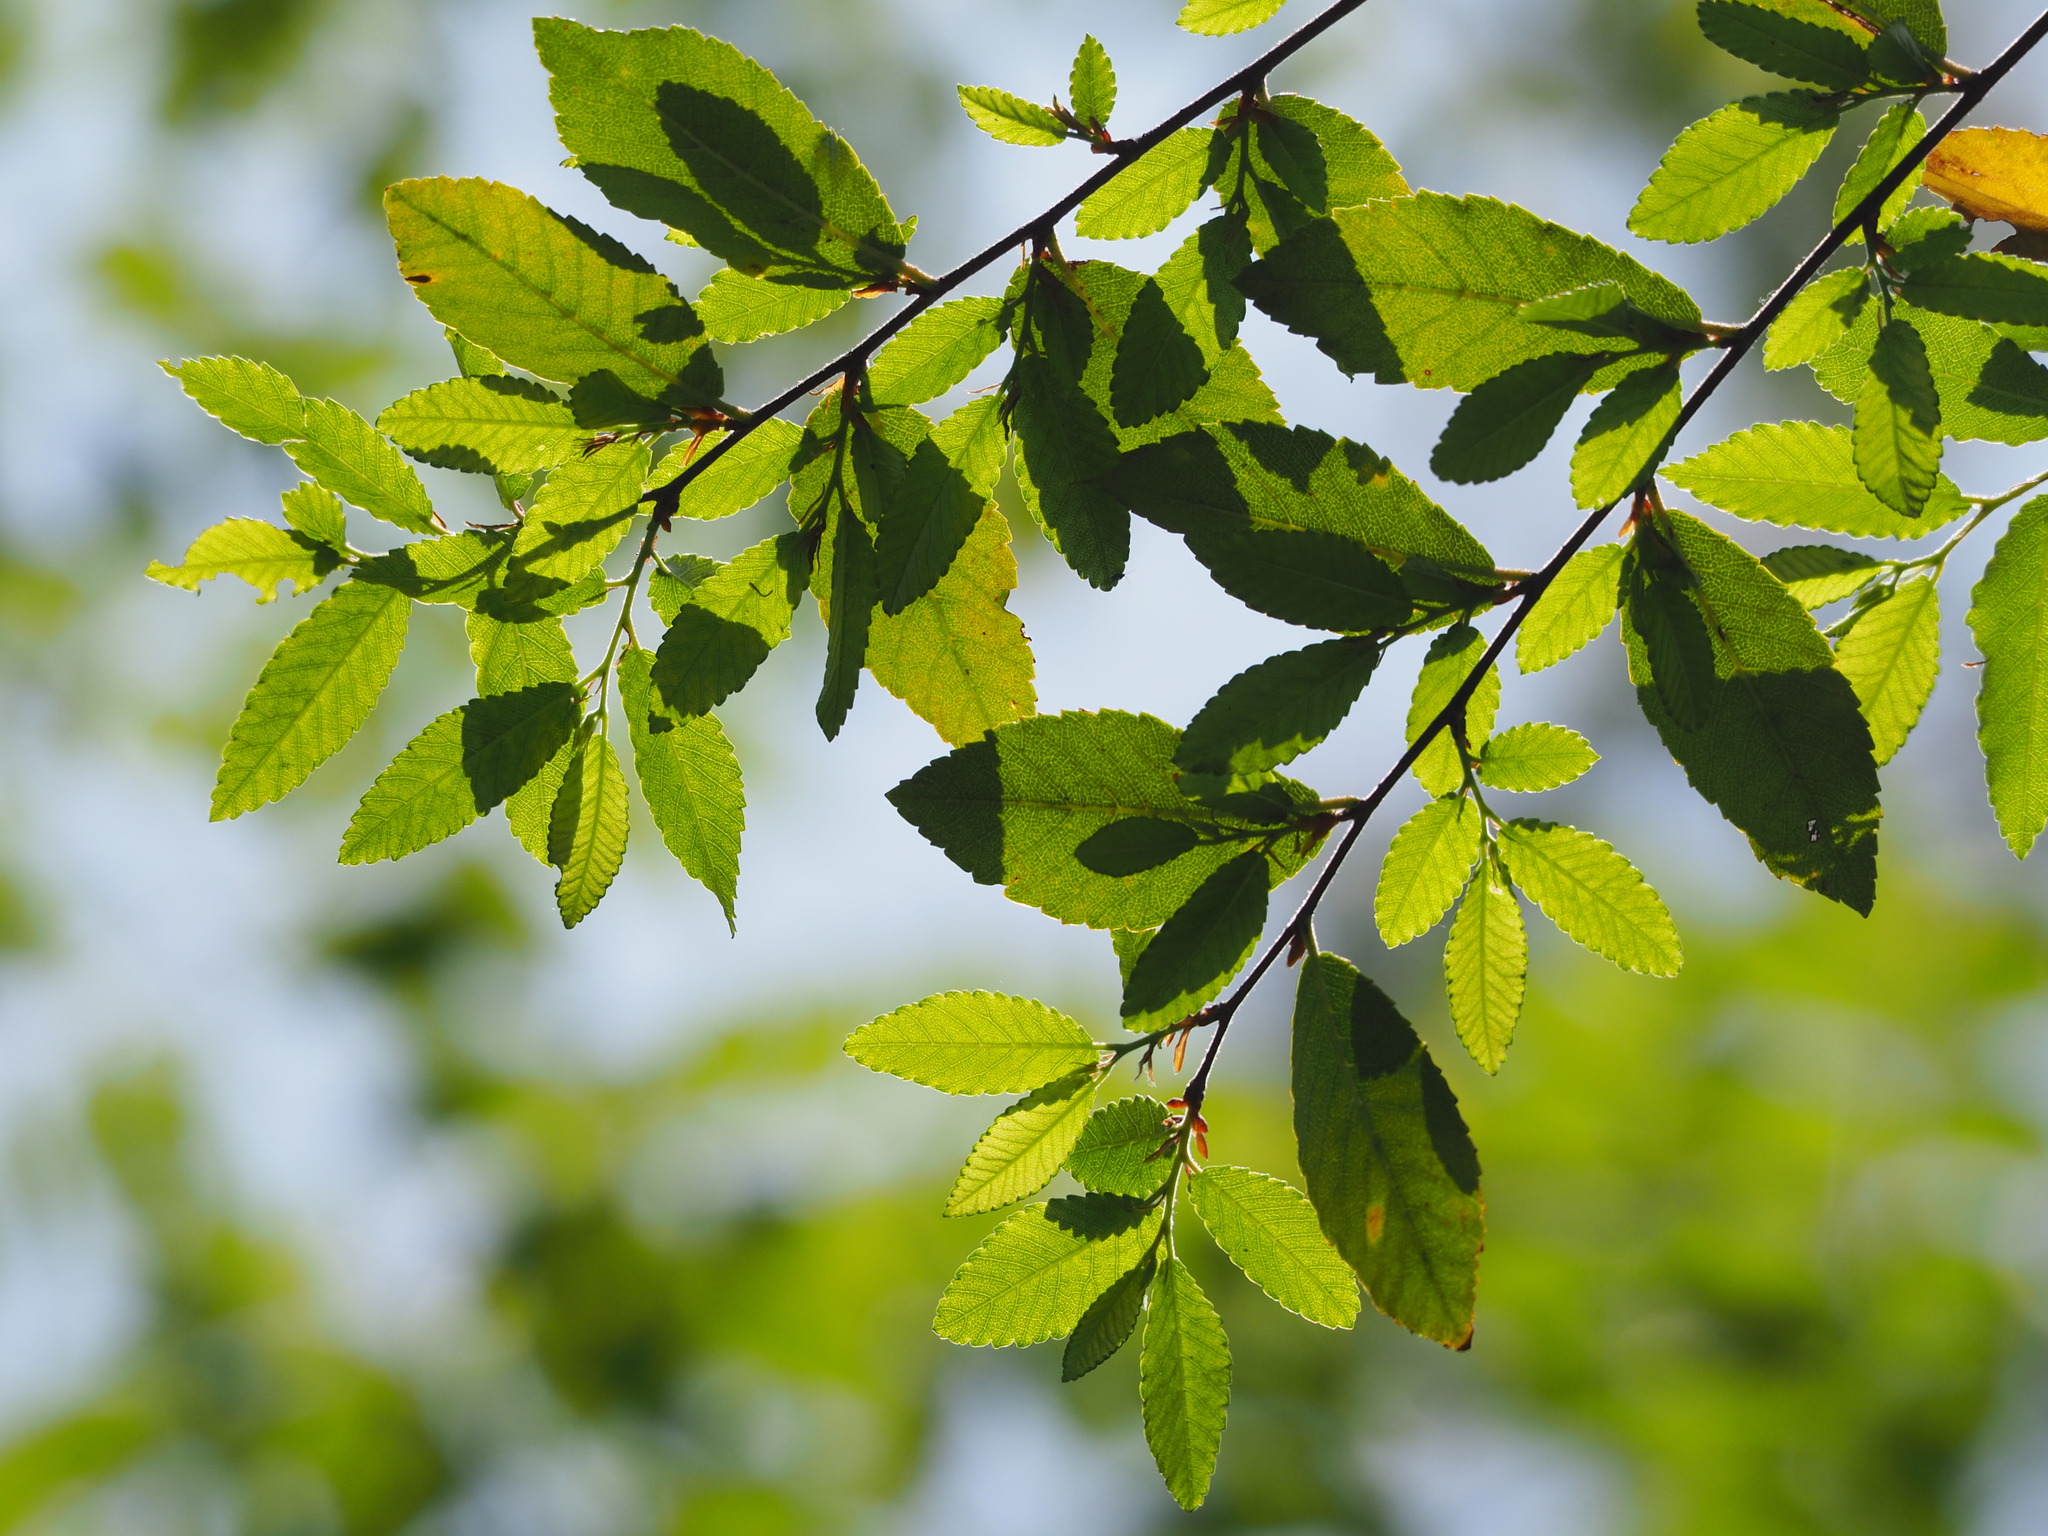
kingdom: Plantae
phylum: Tracheophyta
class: Magnoliopsida
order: Rosales
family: Ulmaceae
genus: Ulmus
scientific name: Ulmus parvifolia
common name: Chinese elm
